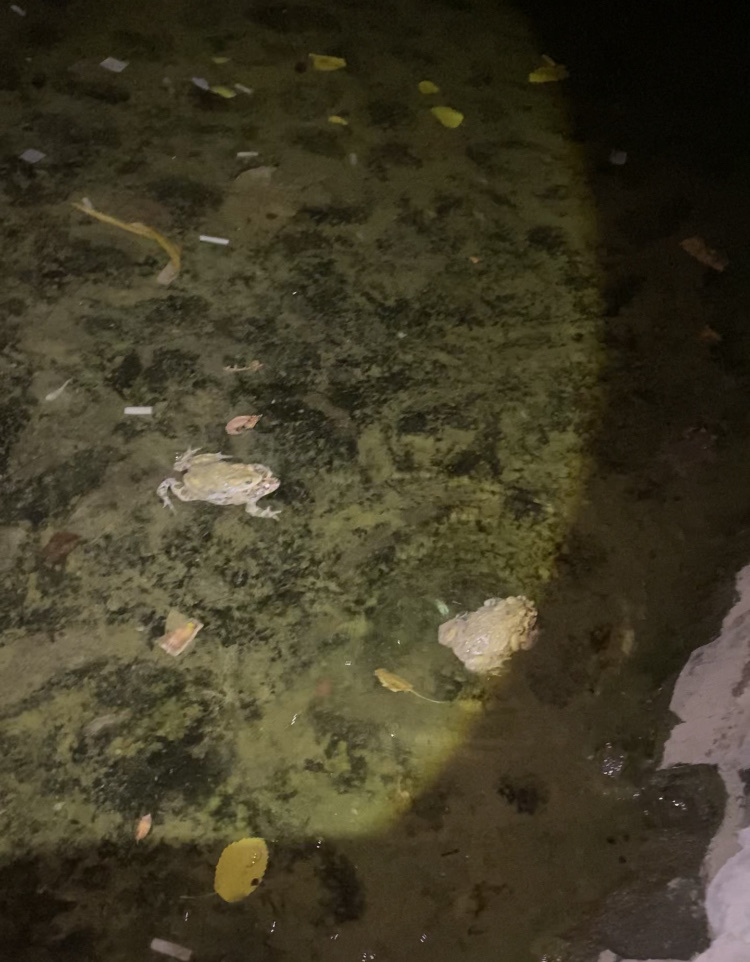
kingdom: Animalia
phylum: Chordata
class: Amphibia
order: Anura
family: Bufonidae
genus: Bufotes
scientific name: Bufotes viridis
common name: European green toad
